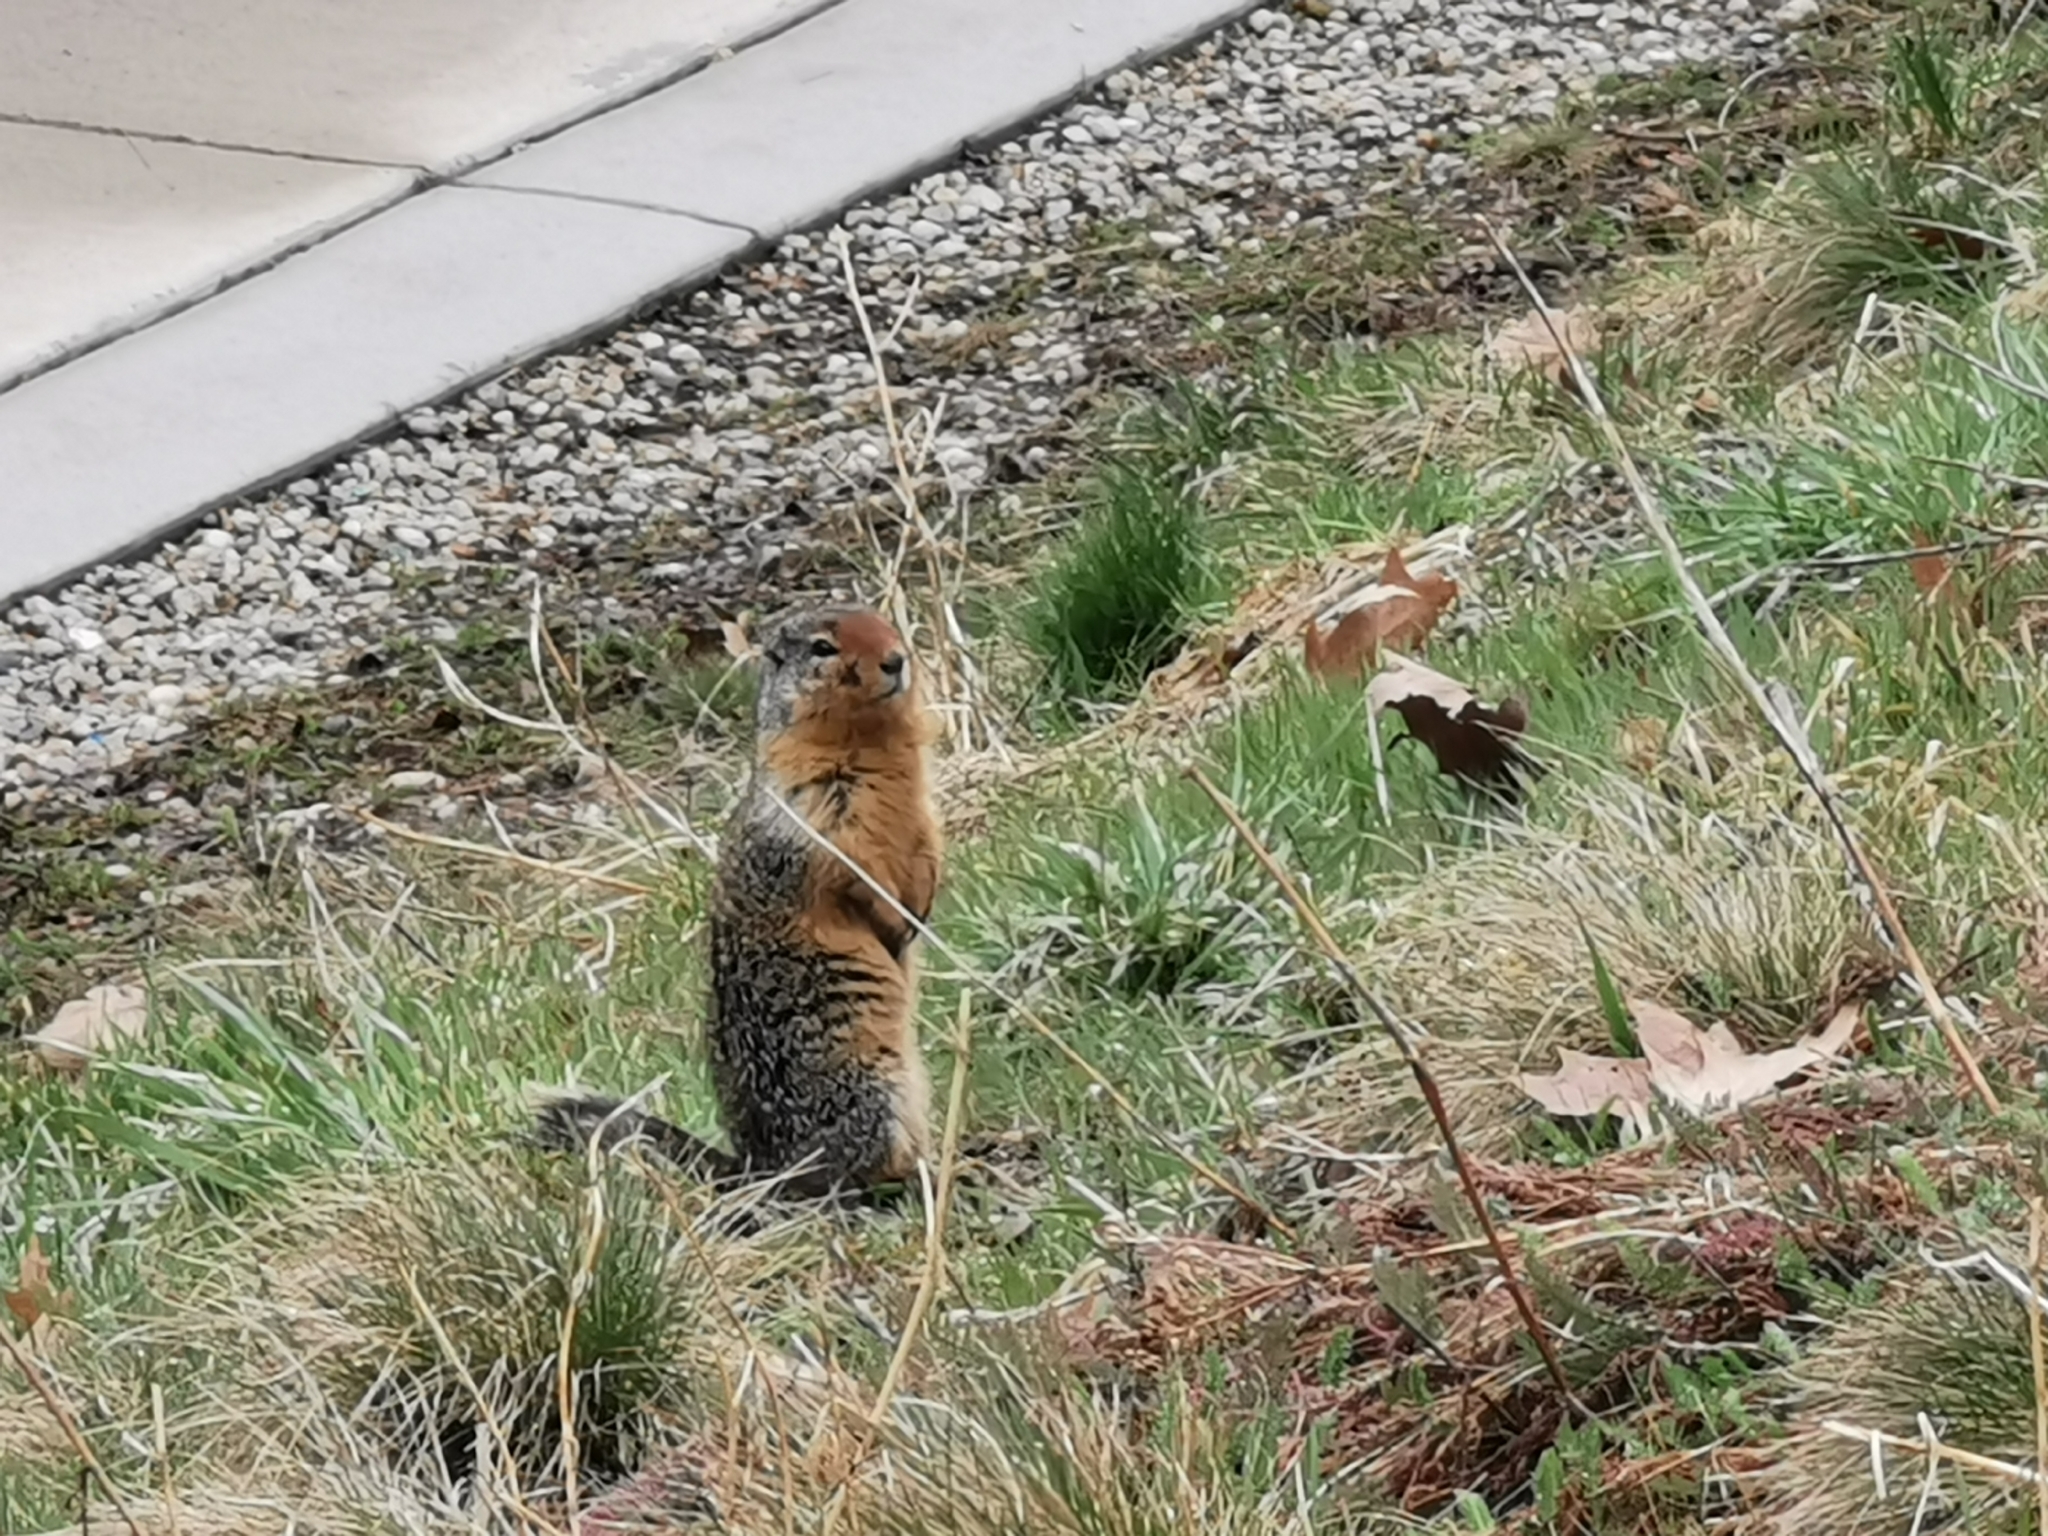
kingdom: Animalia
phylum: Chordata
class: Mammalia
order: Rodentia
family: Sciuridae
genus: Urocitellus
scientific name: Urocitellus columbianus
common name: Columbian ground squirrel
